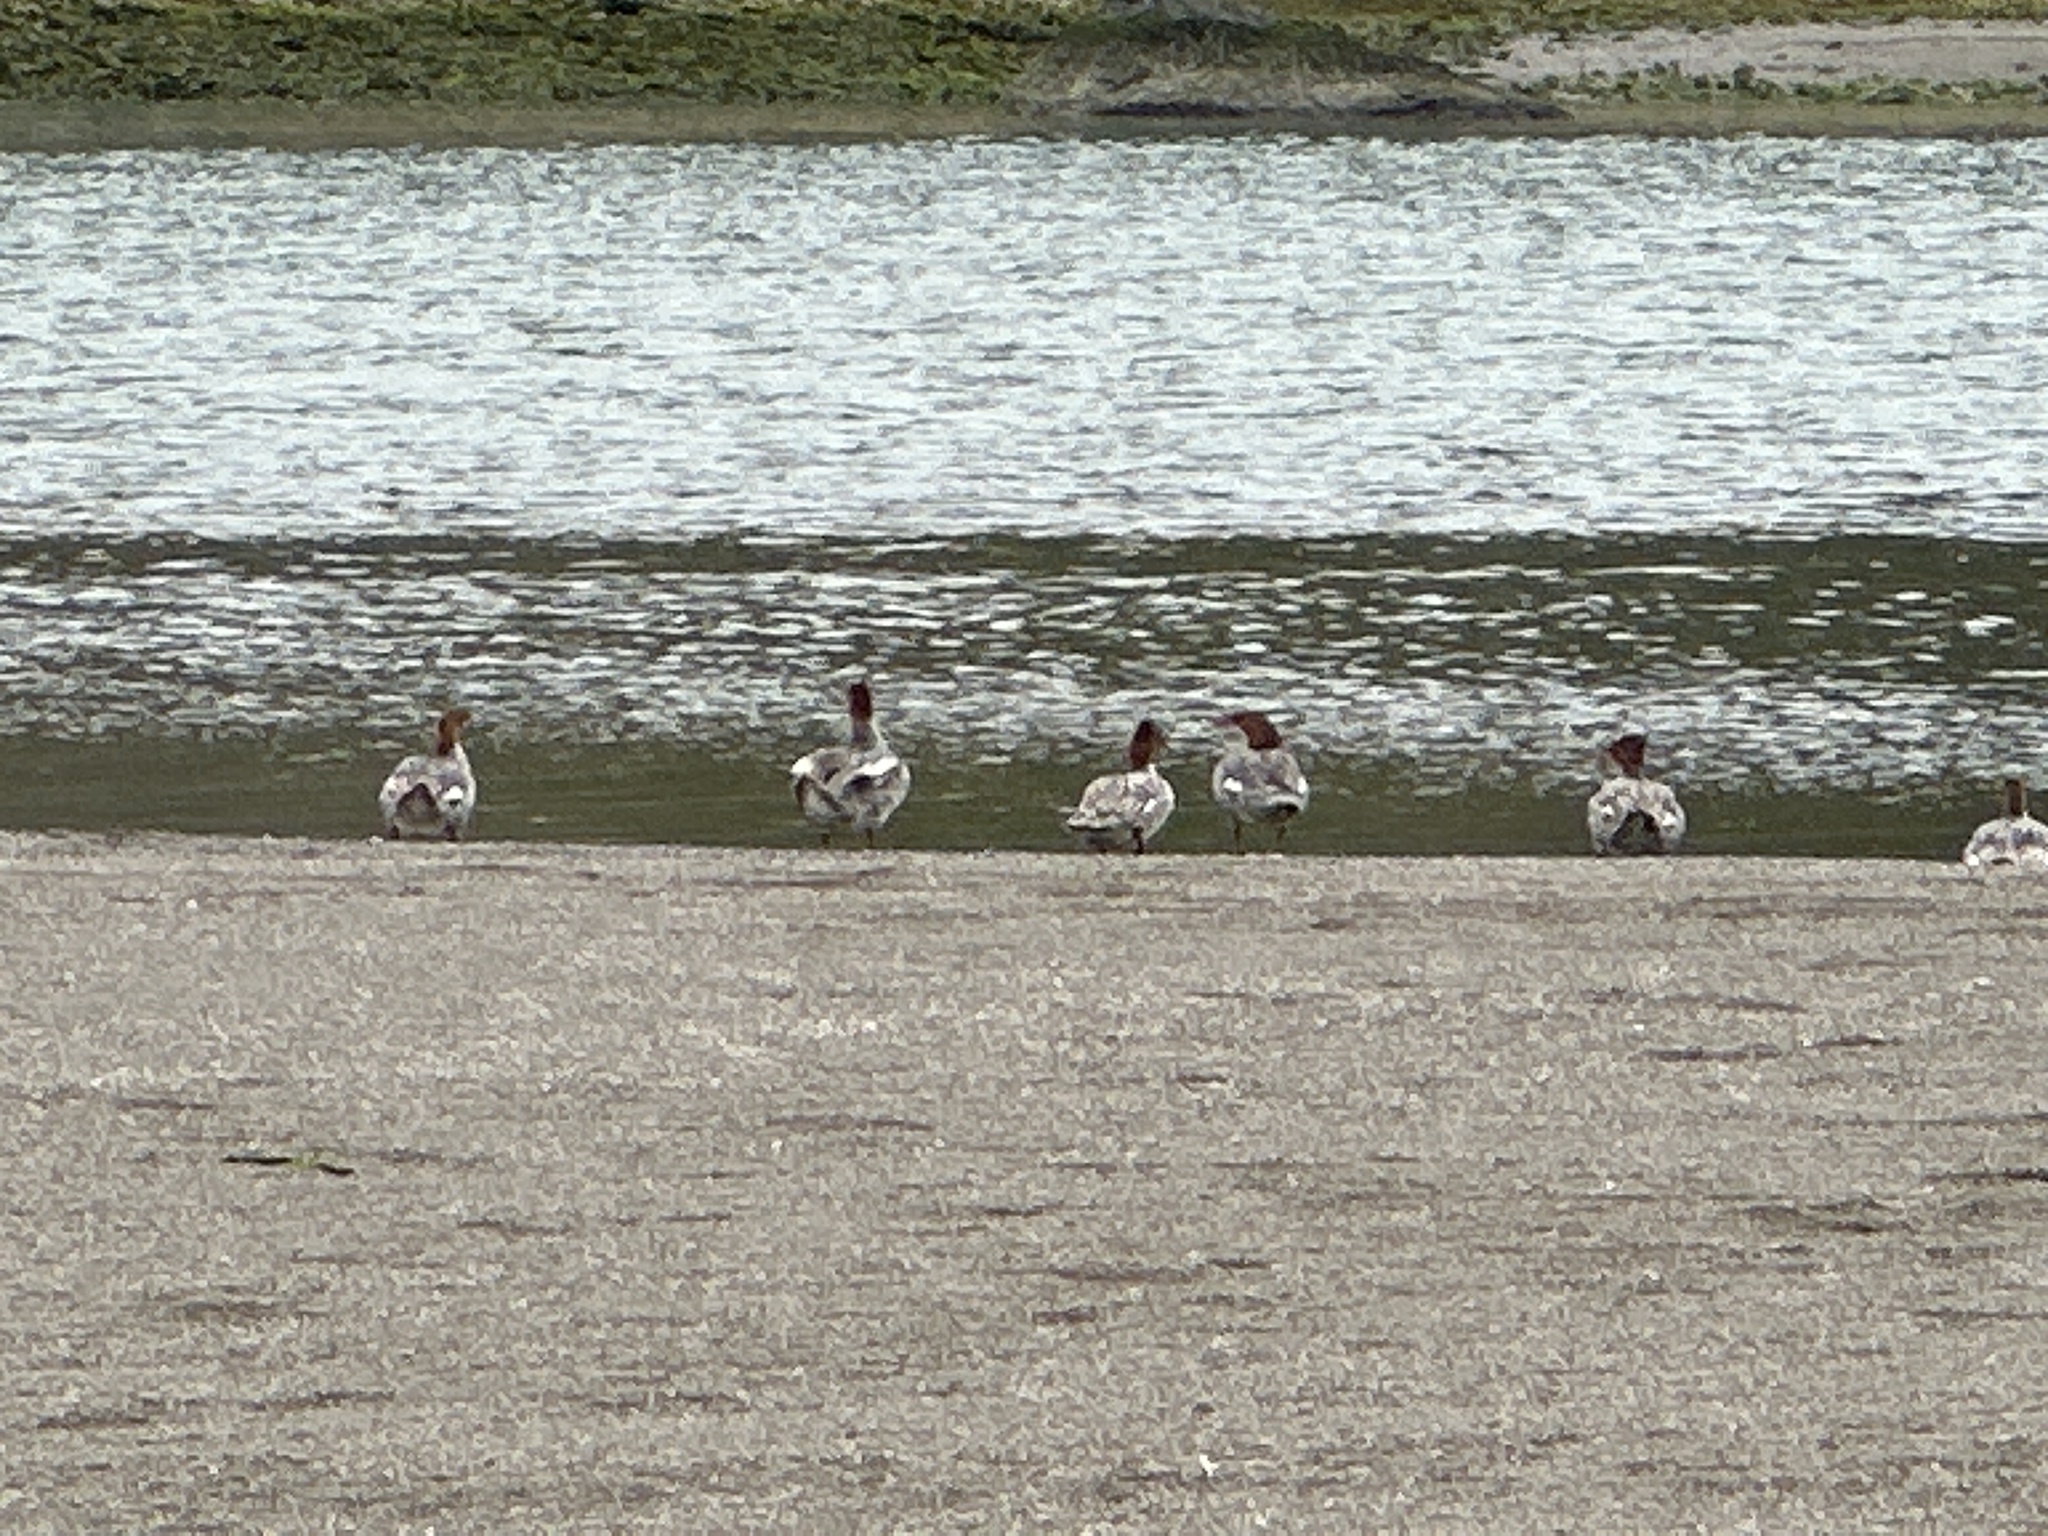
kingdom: Animalia
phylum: Chordata
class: Aves
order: Anseriformes
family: Anatidae
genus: Mergus
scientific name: Mergus merganser
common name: Common merganser
